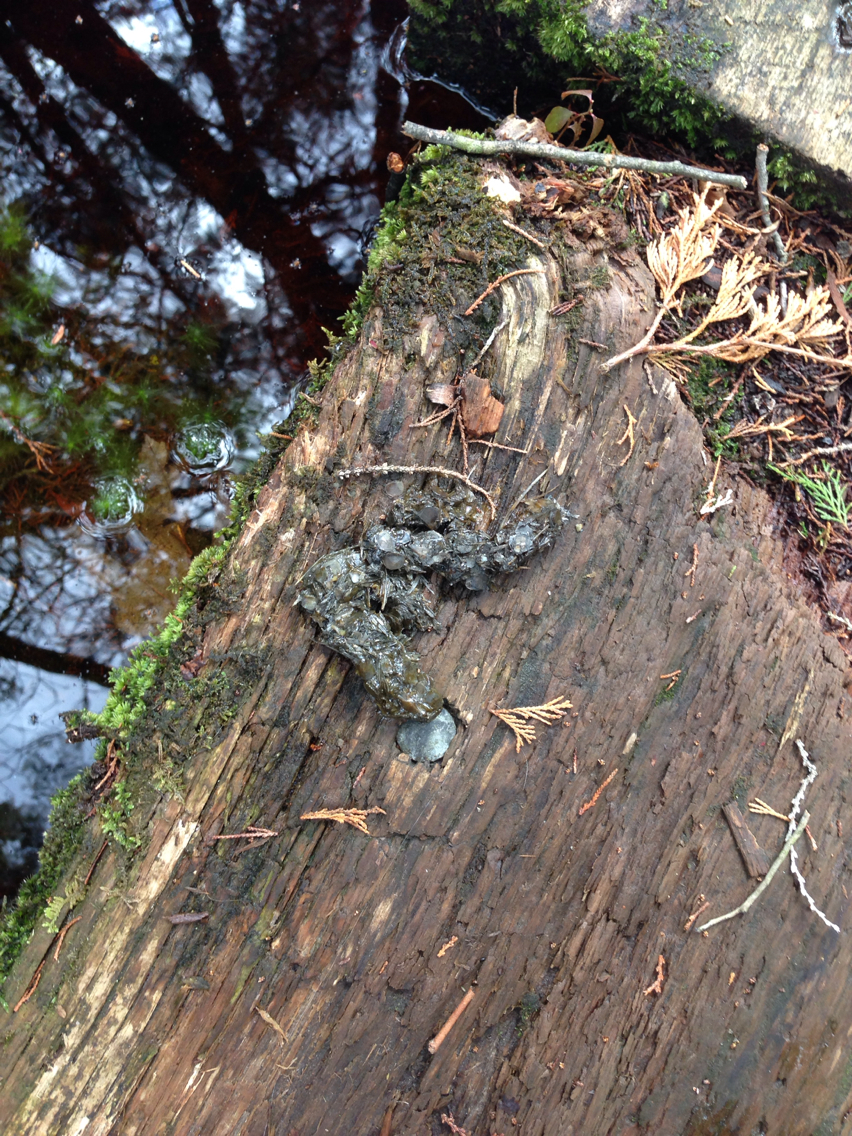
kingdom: Animalia
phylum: Chordata
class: Mammalia
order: Carnivora
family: Mustelidae
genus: Lontra
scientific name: Lontra canadensis
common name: North american river otter
